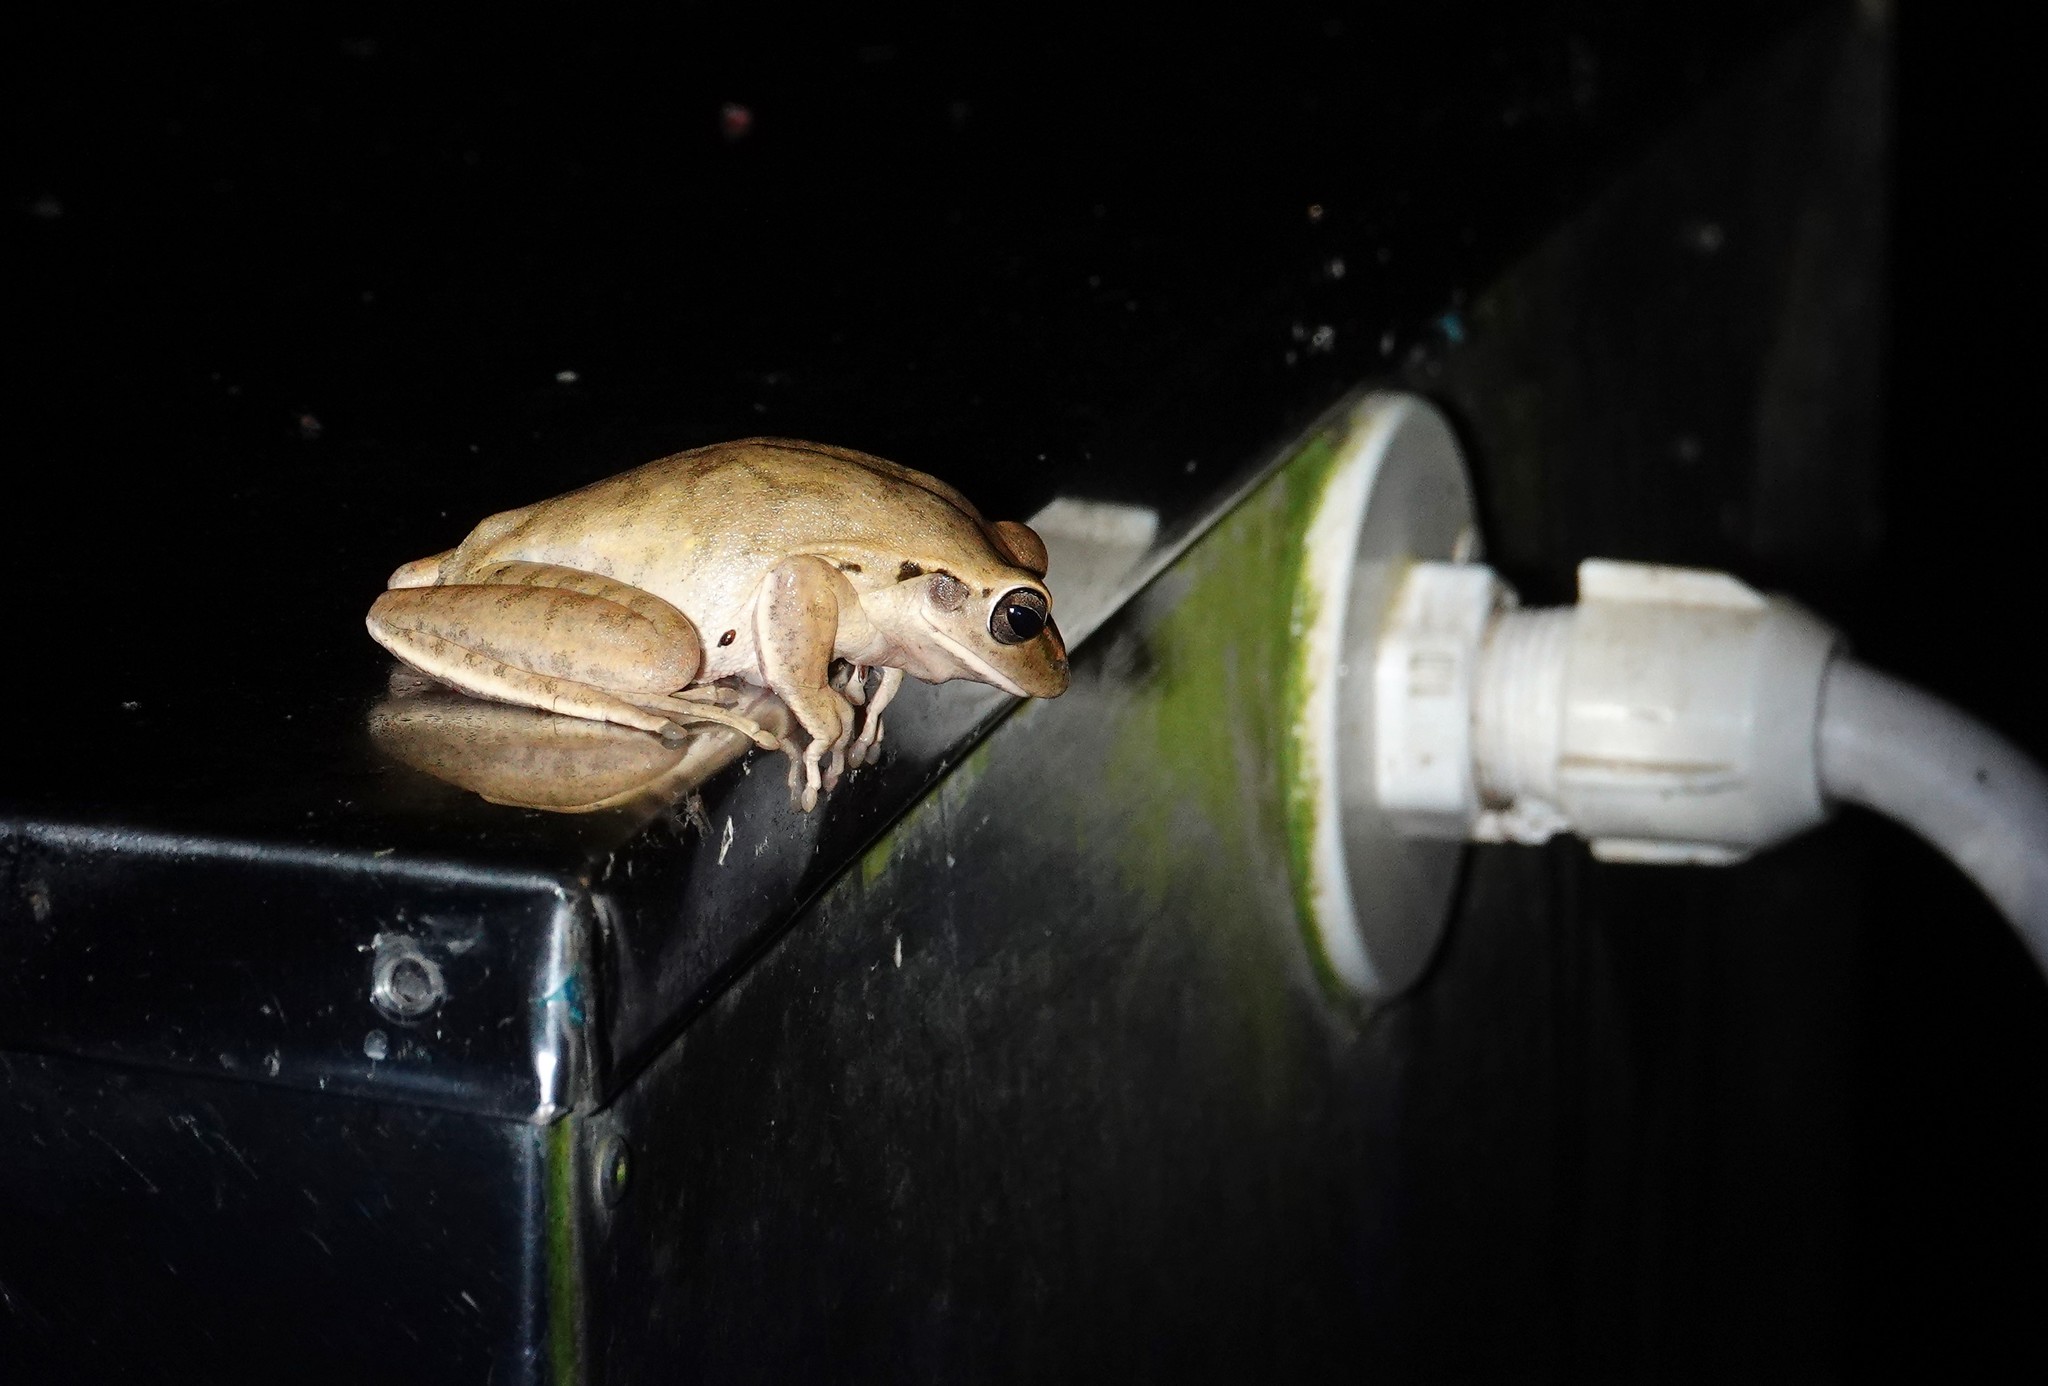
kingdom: Animalia
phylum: Chordata
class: Amphibia
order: Anura
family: Hylidae
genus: Boana
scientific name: Boana raniceps
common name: Chaco treefrog
